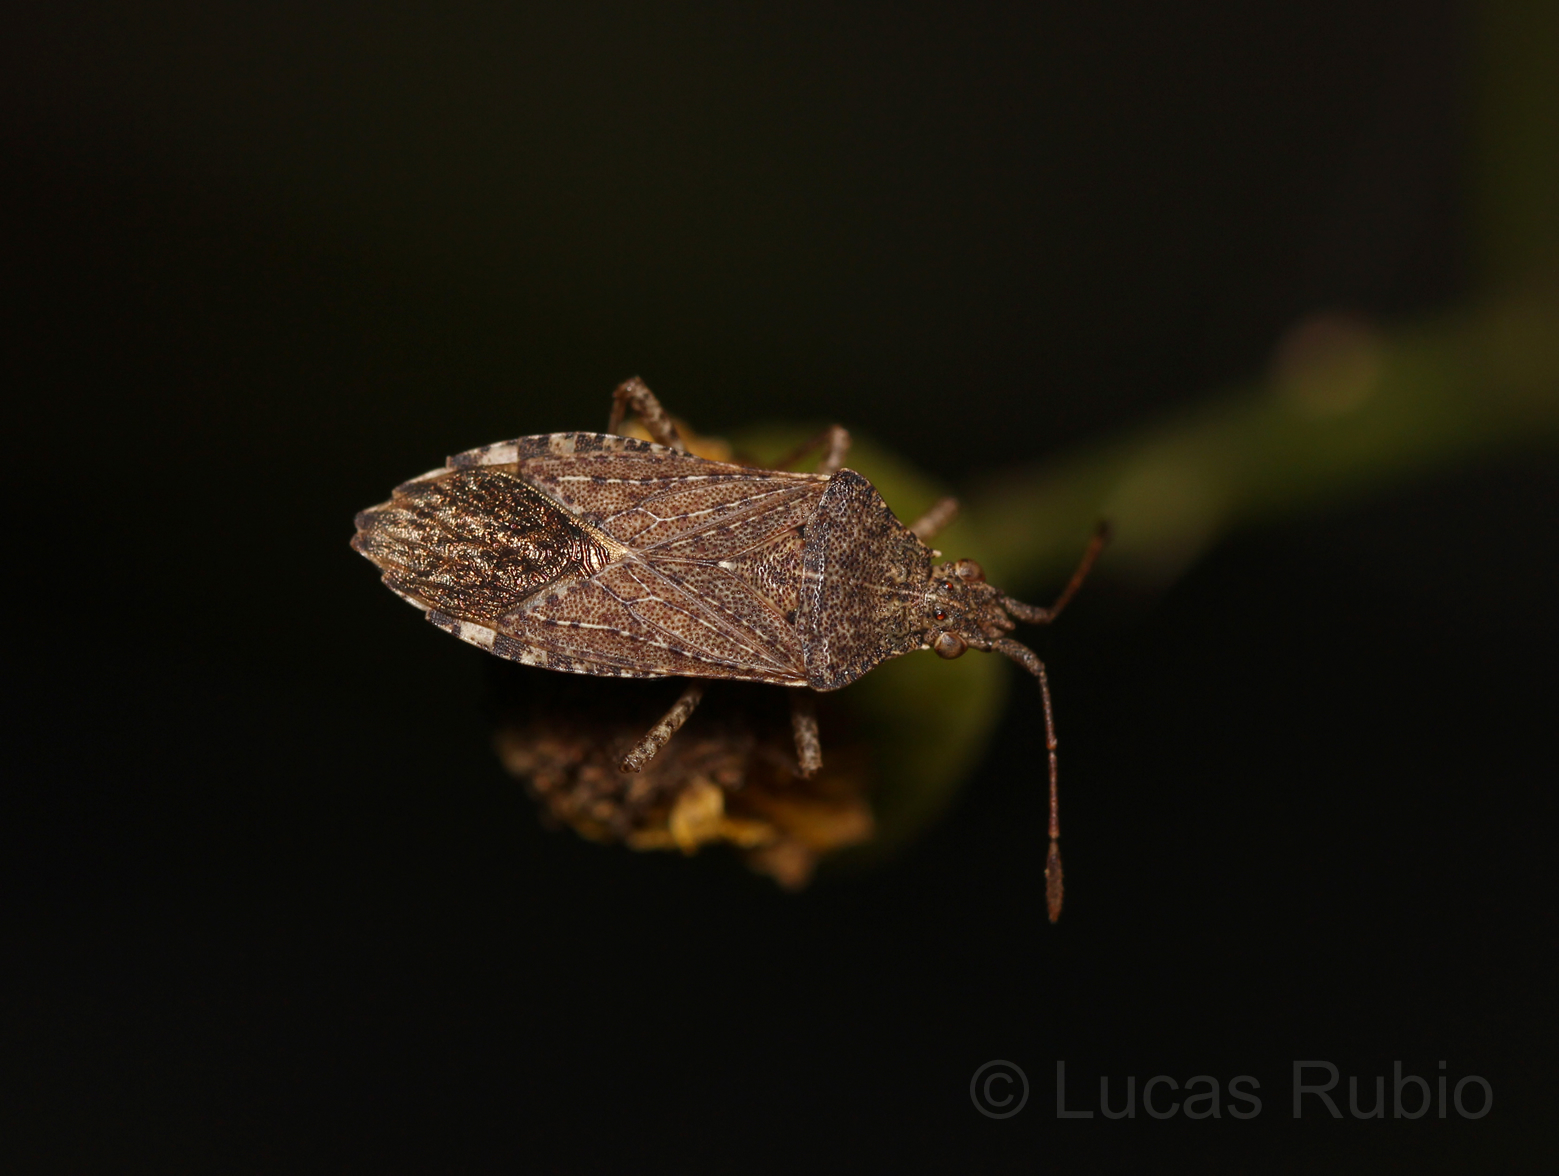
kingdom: Animalia
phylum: Arthropoda
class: Insecta
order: Hemiptera
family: Coreidae
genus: Althos
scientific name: Althos obscurator
